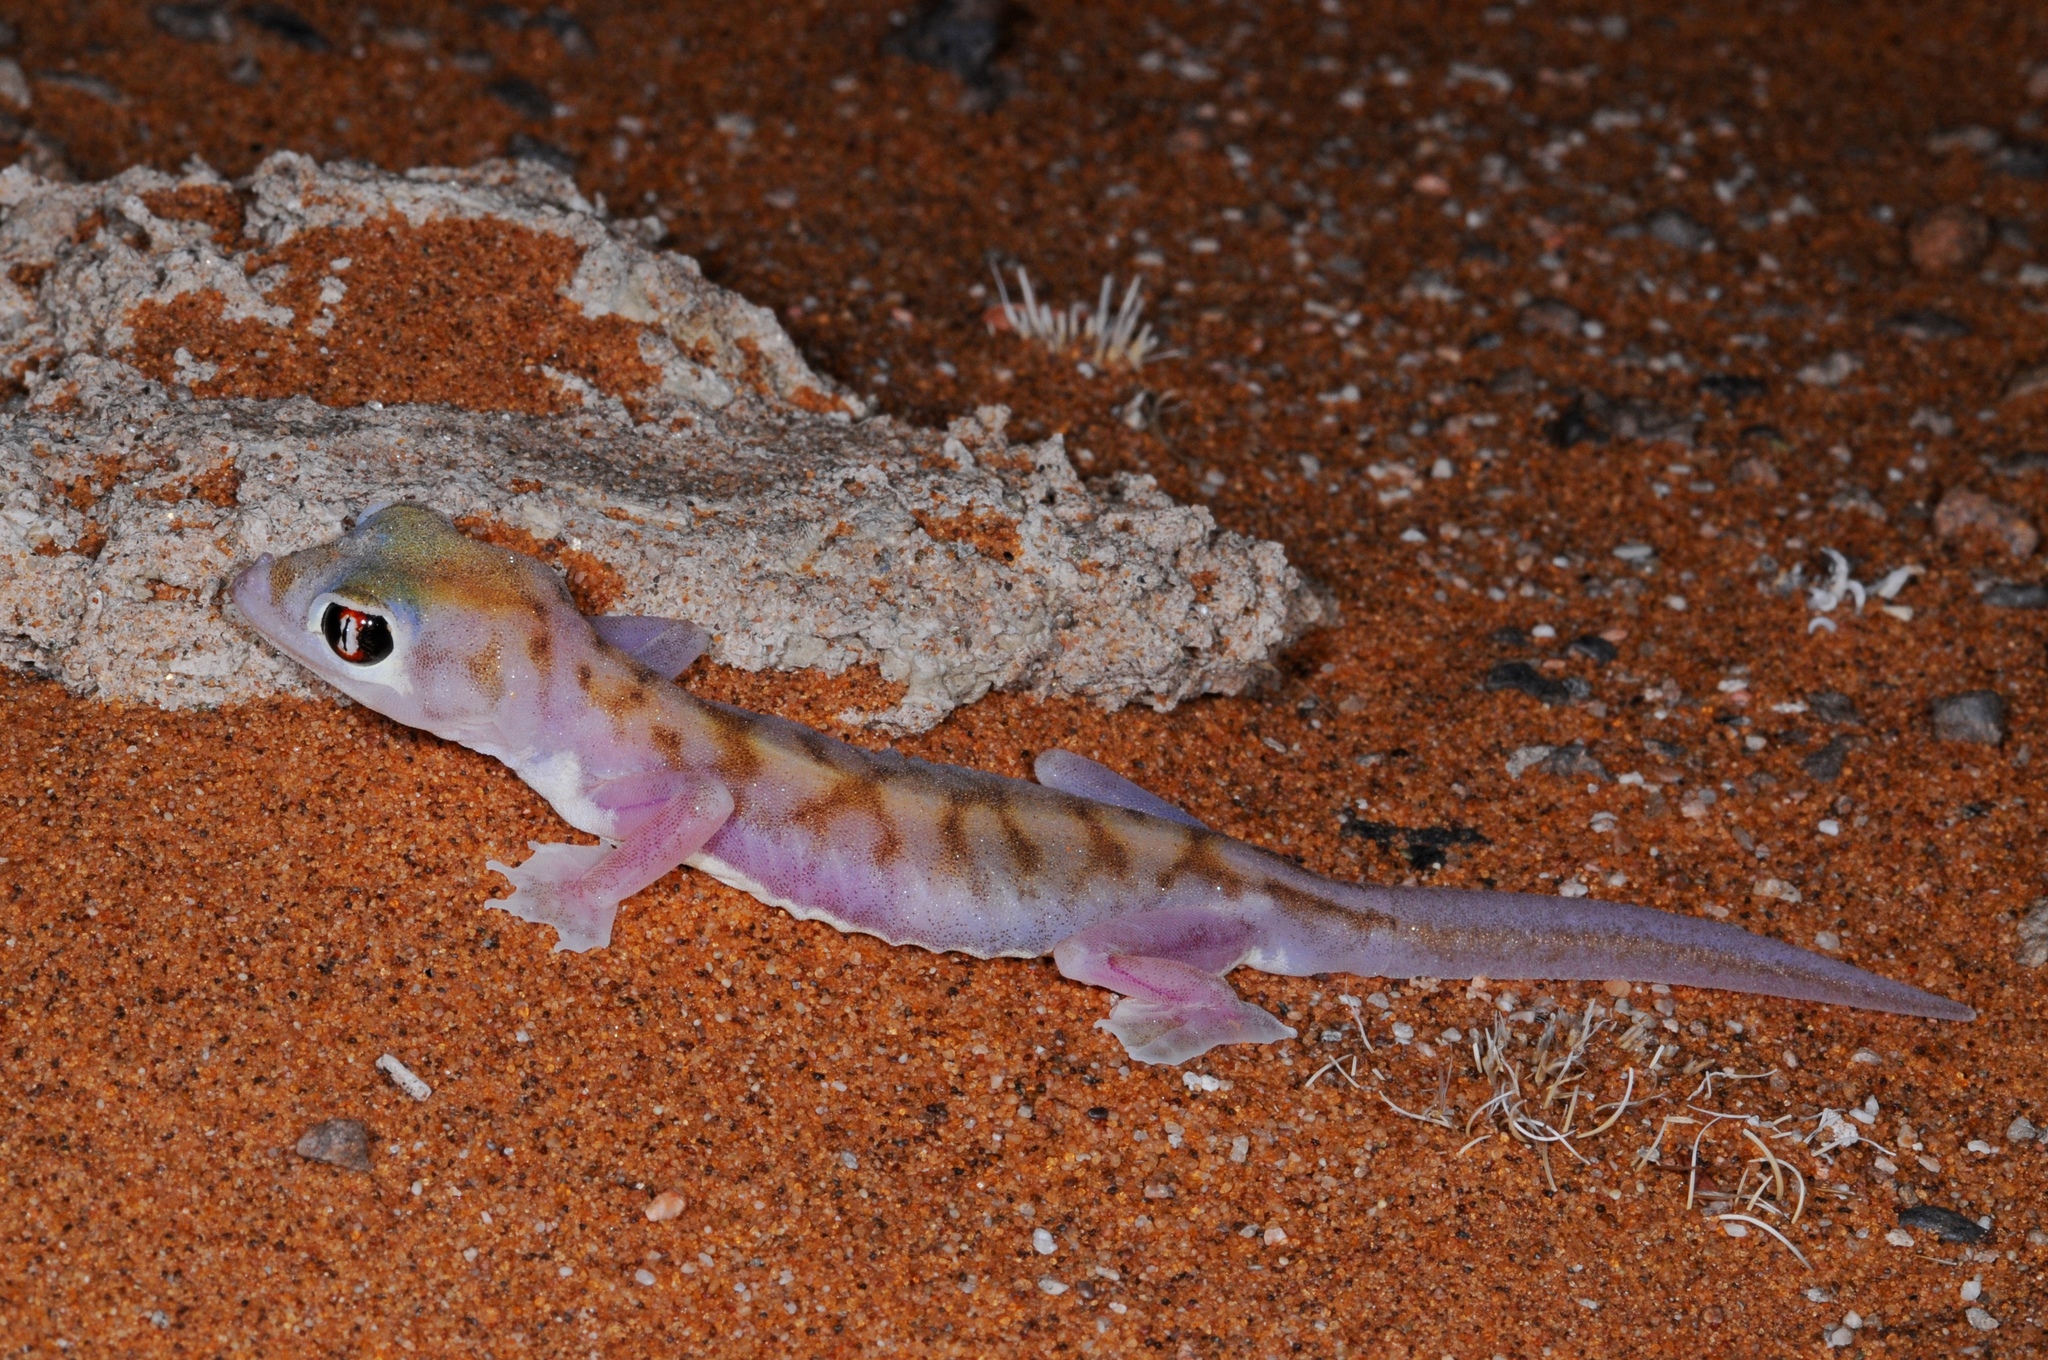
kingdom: Animalia
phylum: Chordata
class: Squamata
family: Gekkonidae
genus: Pachydactylus
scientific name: Pachydactylus rangei
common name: Namib sand gecko
